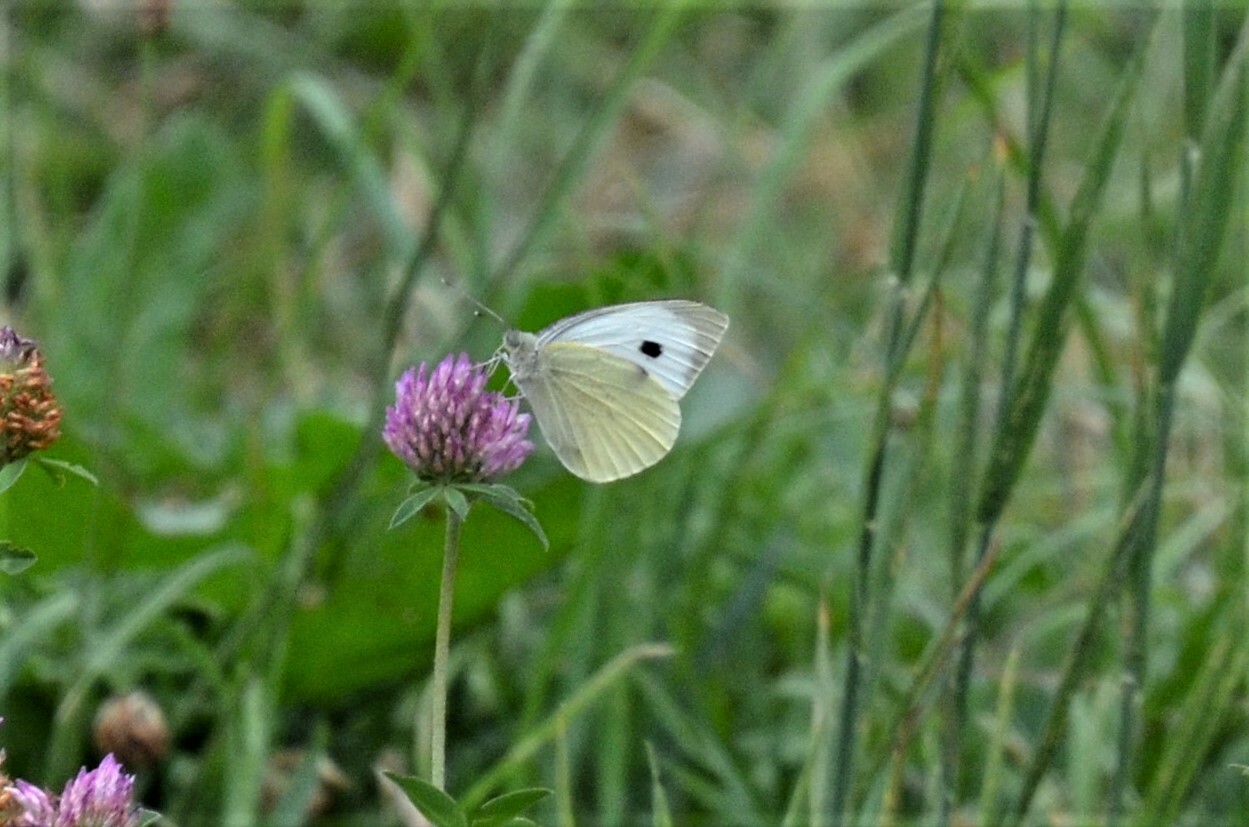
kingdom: Animalia
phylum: Arthropoda
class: Insecta
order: Lepidoptera
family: Pieridae
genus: Pieris
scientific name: Pieris brassicae
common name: Large white
